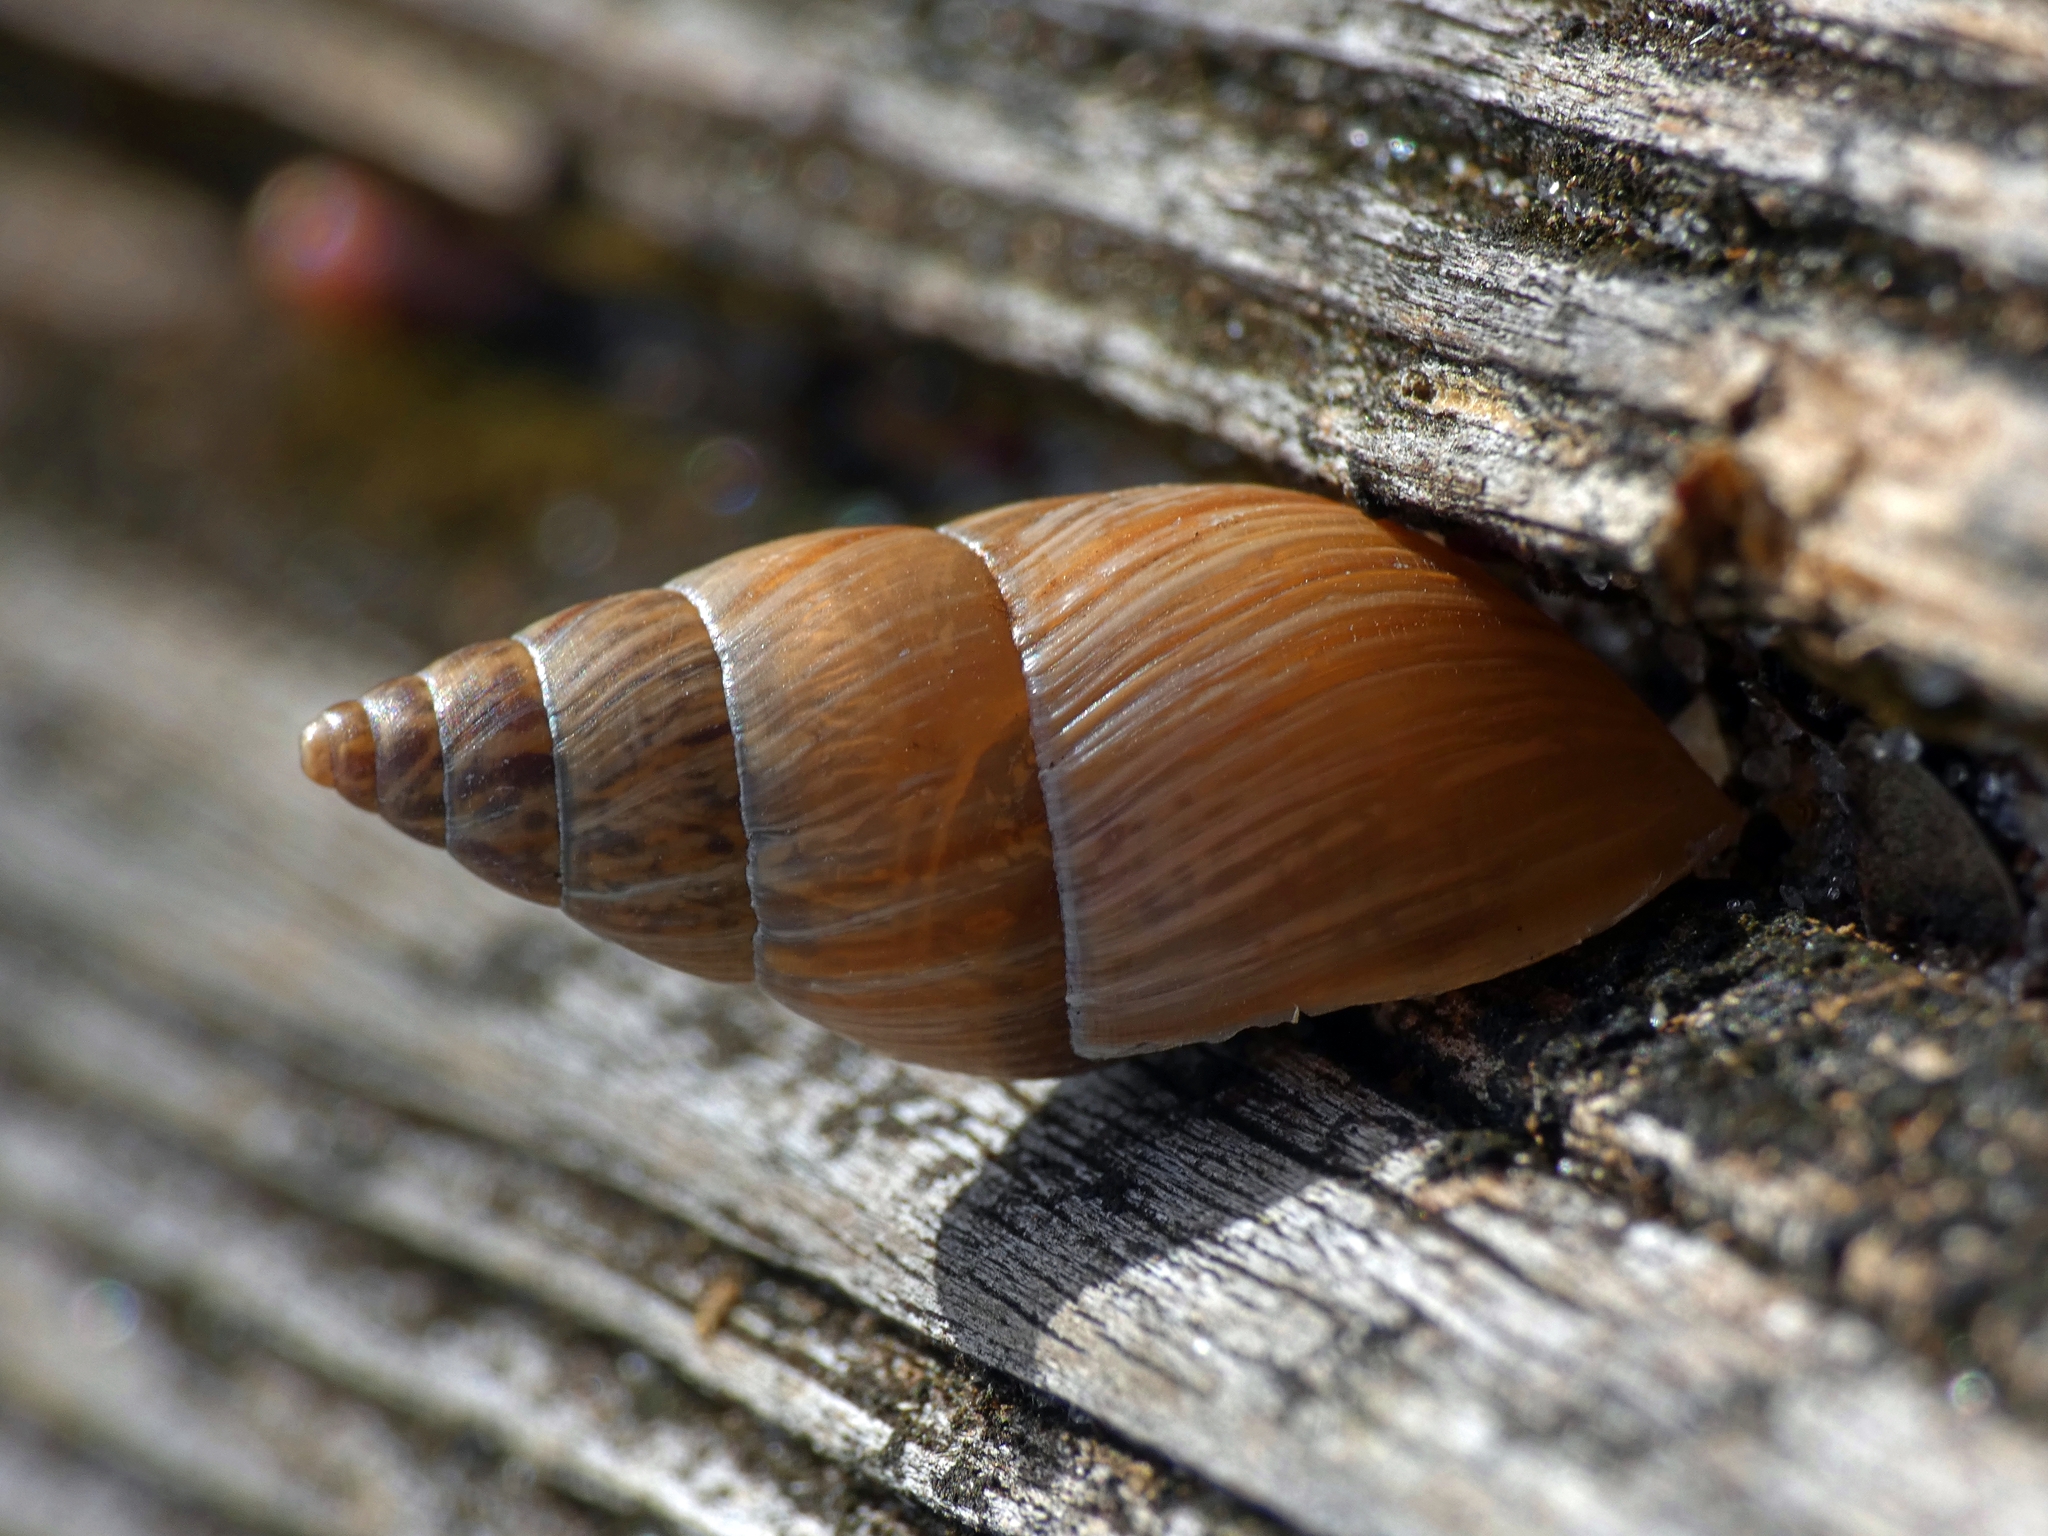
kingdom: Animalia
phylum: Mollusca
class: Gastropoda
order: Stylommatophora
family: Bulimulidae
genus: Bulimulus
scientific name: Bulimulus bonariensis
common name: Snail
